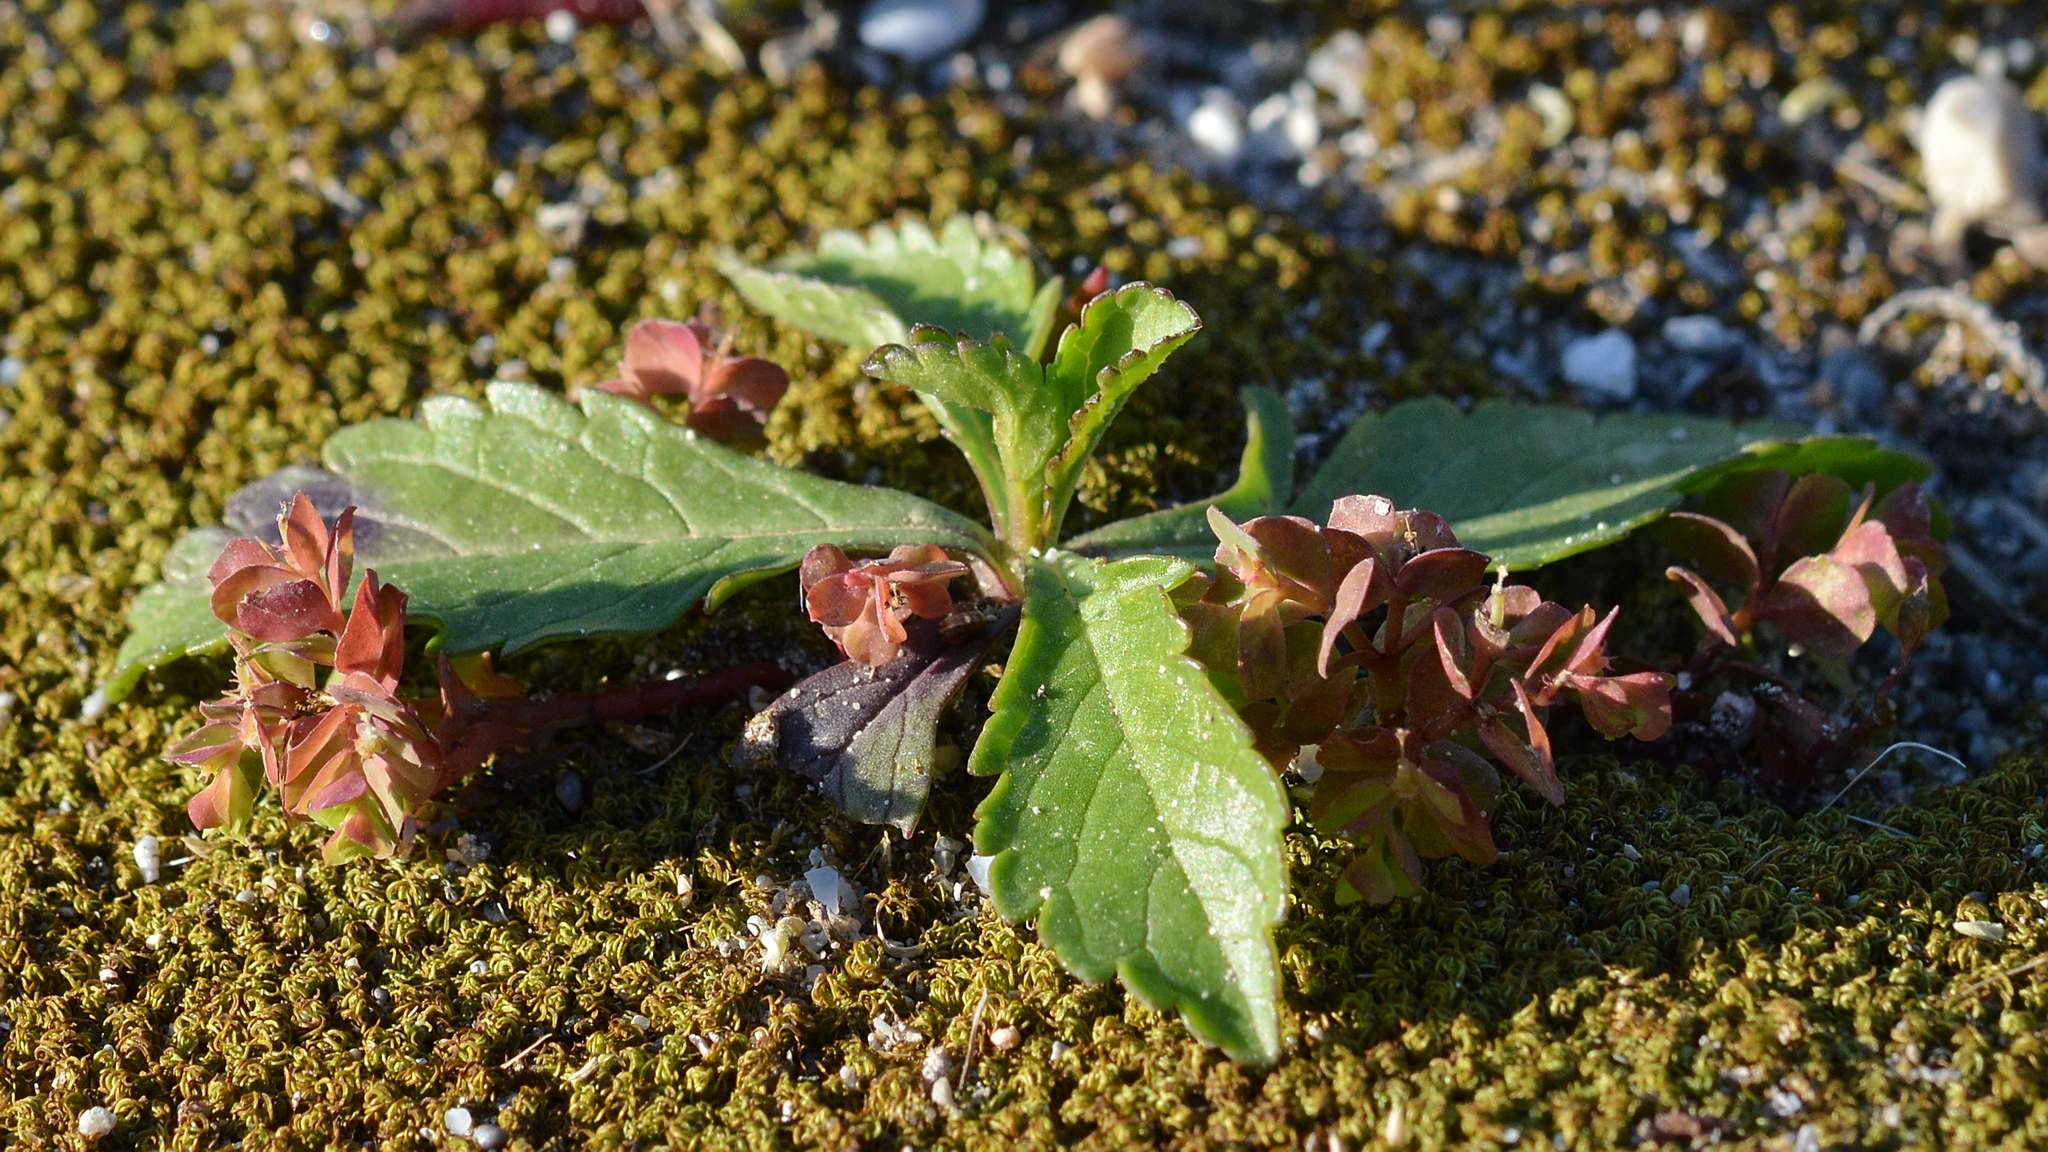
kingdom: Plantae
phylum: Tracheophyta
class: Magnoliopsida
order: Dipsacales
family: Caprifoliaceae
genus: Centranthus
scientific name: Centranthus calcitrapae
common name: Annual valerian
